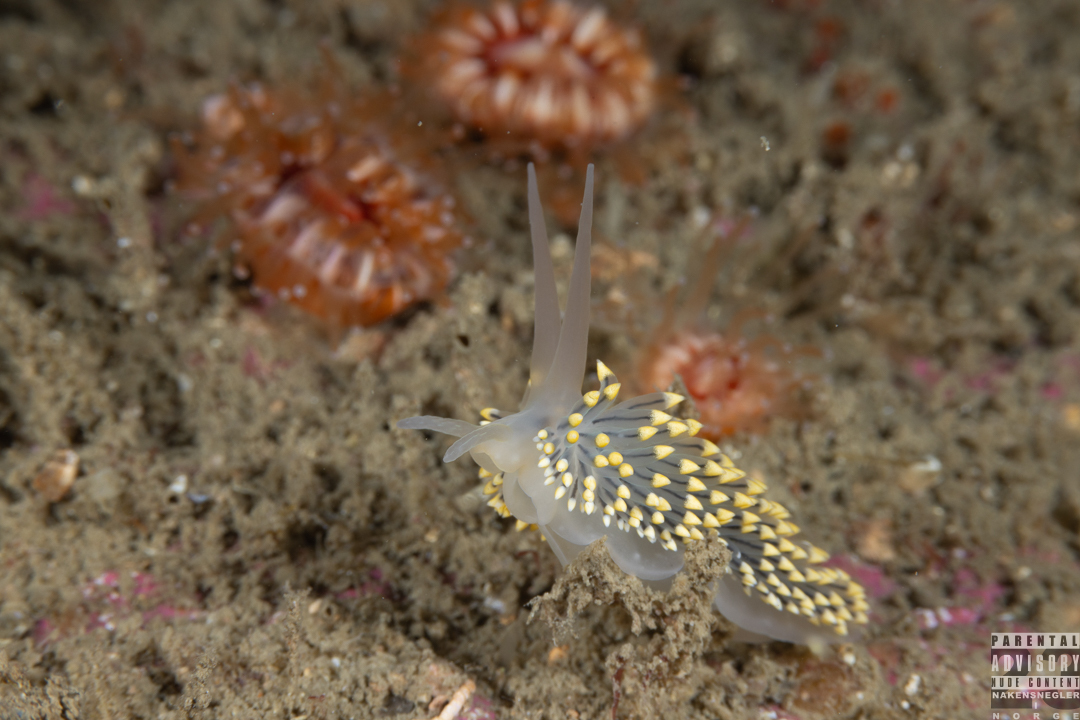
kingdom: Animalia
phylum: Mollusca
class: Gastropoda
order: Nudibranchia
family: Eubranchidae
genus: Eubranchus
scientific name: Eubranchus tricolor
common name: Painted balloon aeolis
